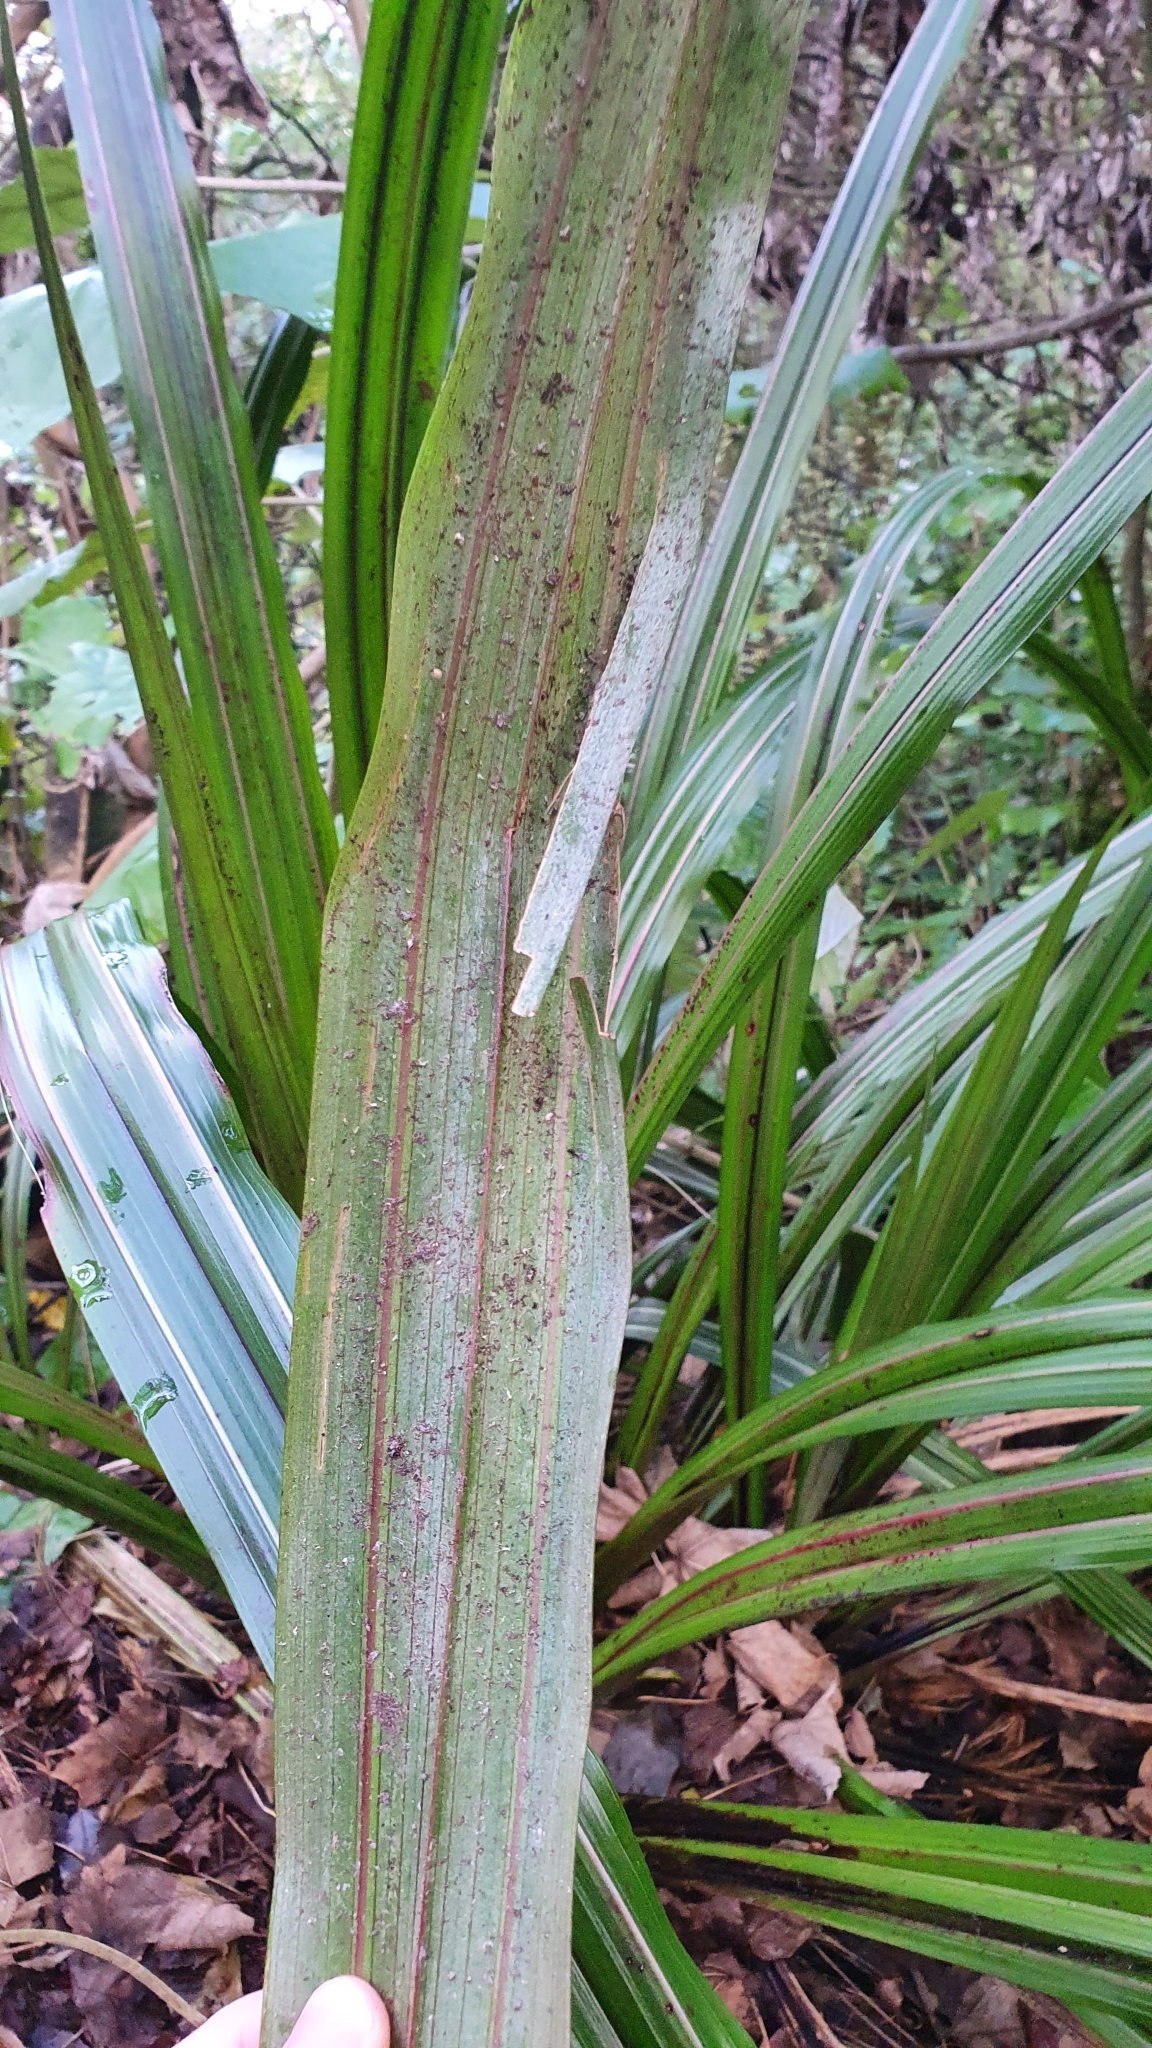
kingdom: Plantae
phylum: Tracheophyta
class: Liliopsida
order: Asparagales
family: Asteliaceae
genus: Astelia
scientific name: Astelia fragrans
